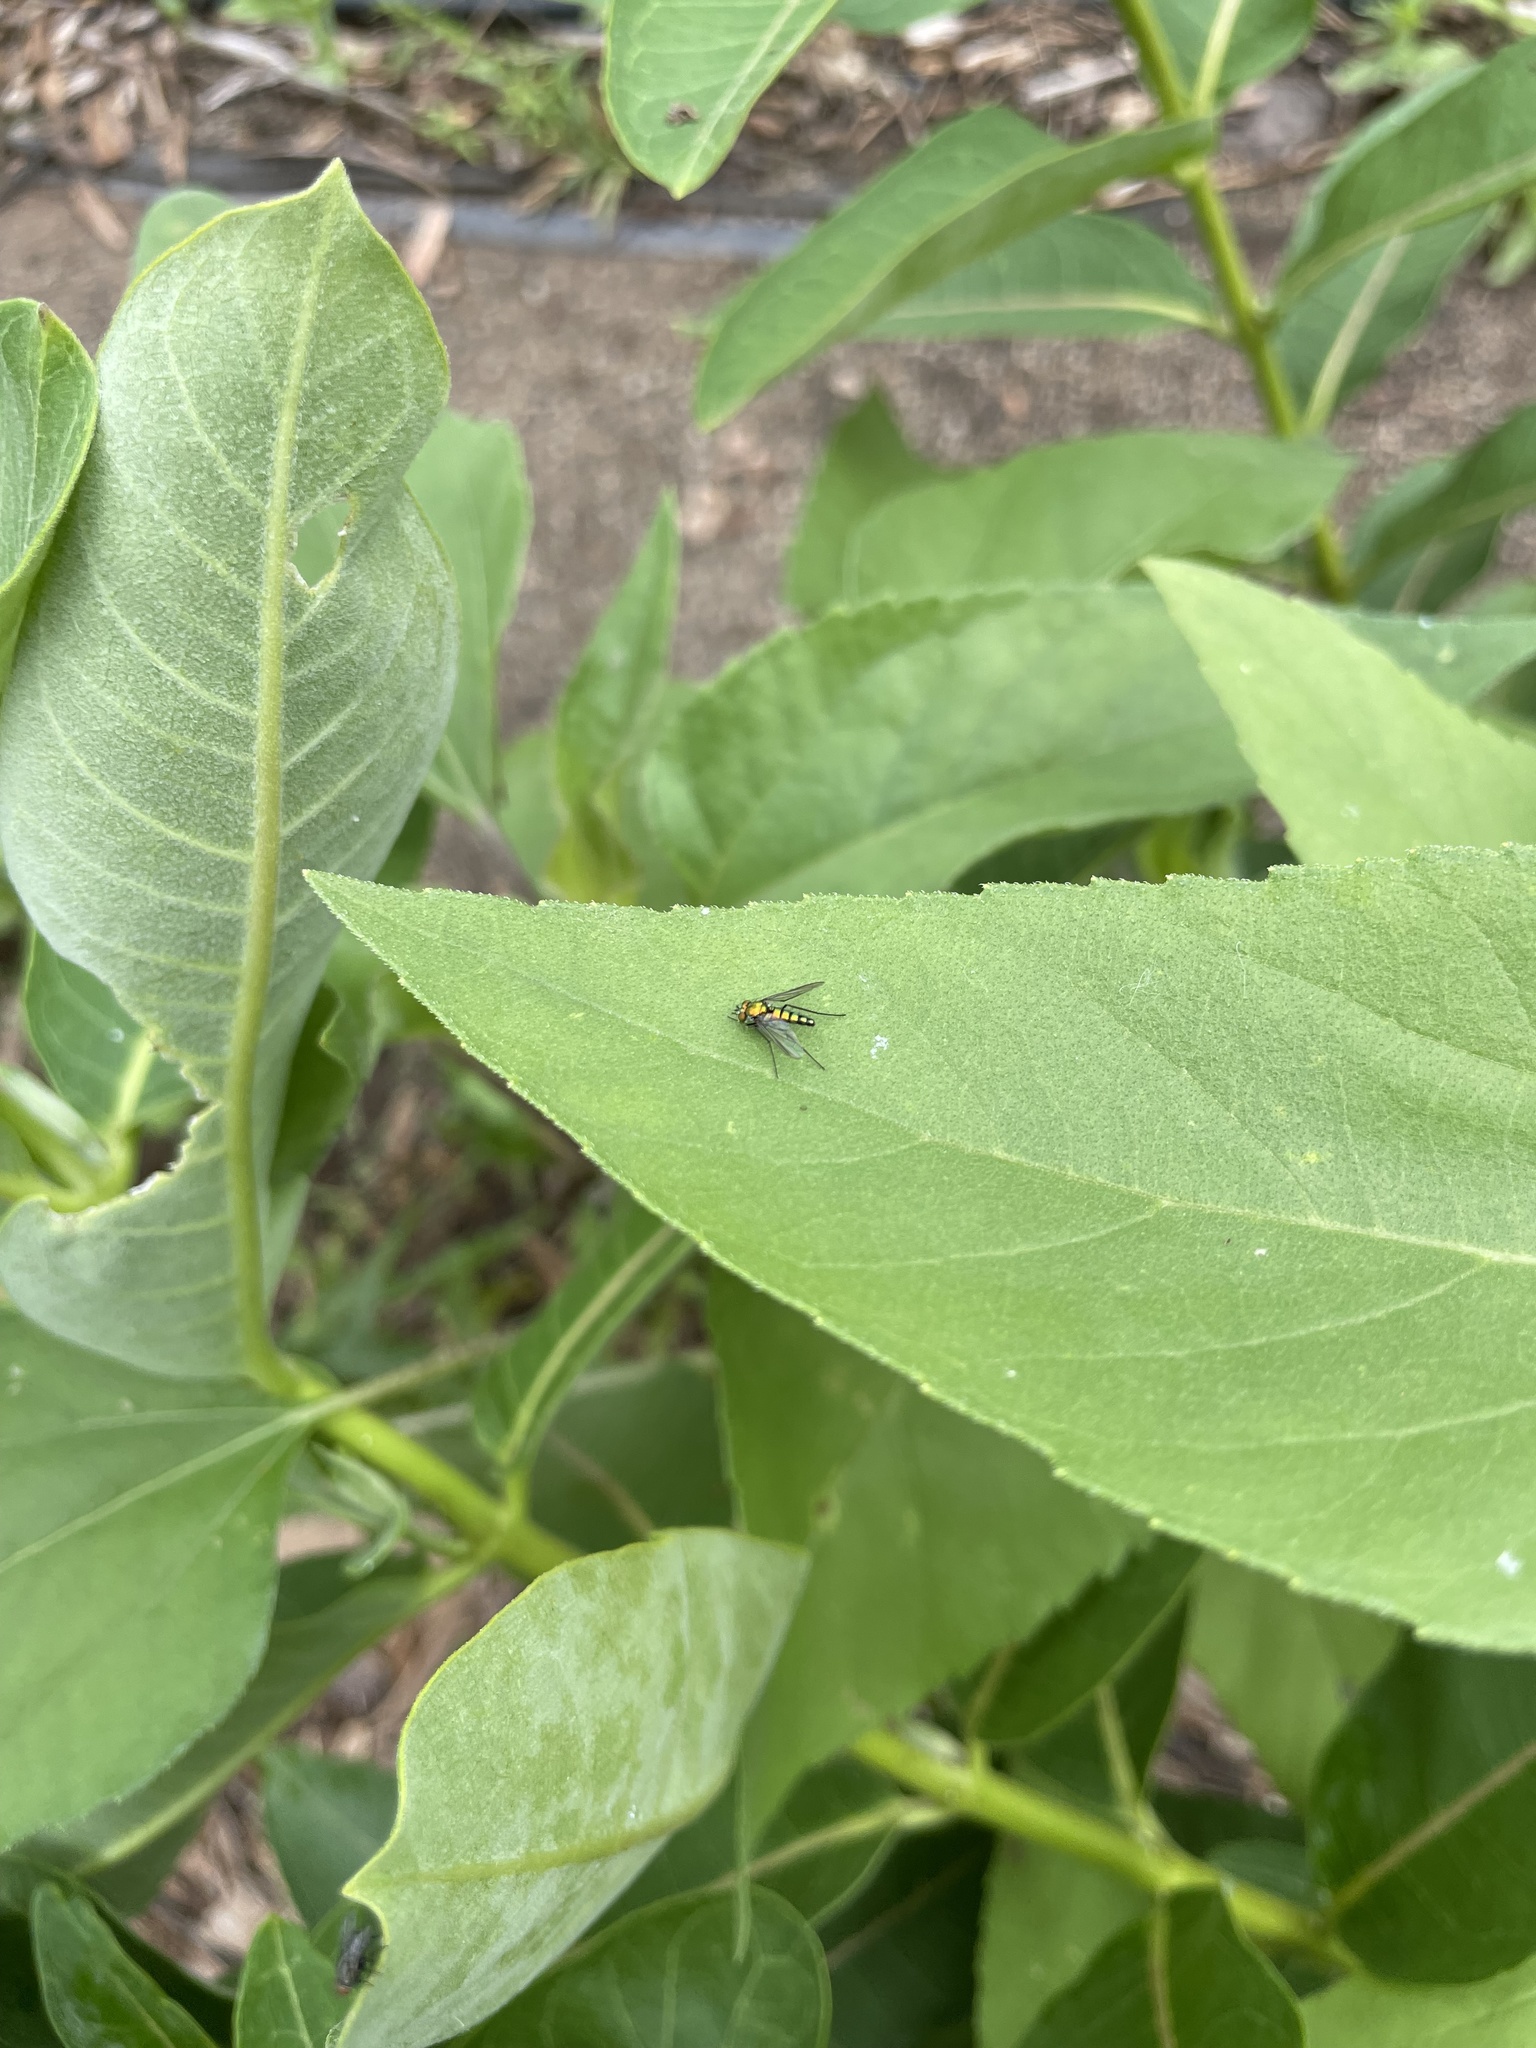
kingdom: Animalia
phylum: Arthropoda
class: Insecta
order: Diptera
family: Dolichopodidae
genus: Condylostylus
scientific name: Condylostylus longicornis
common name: Long-legged fly
